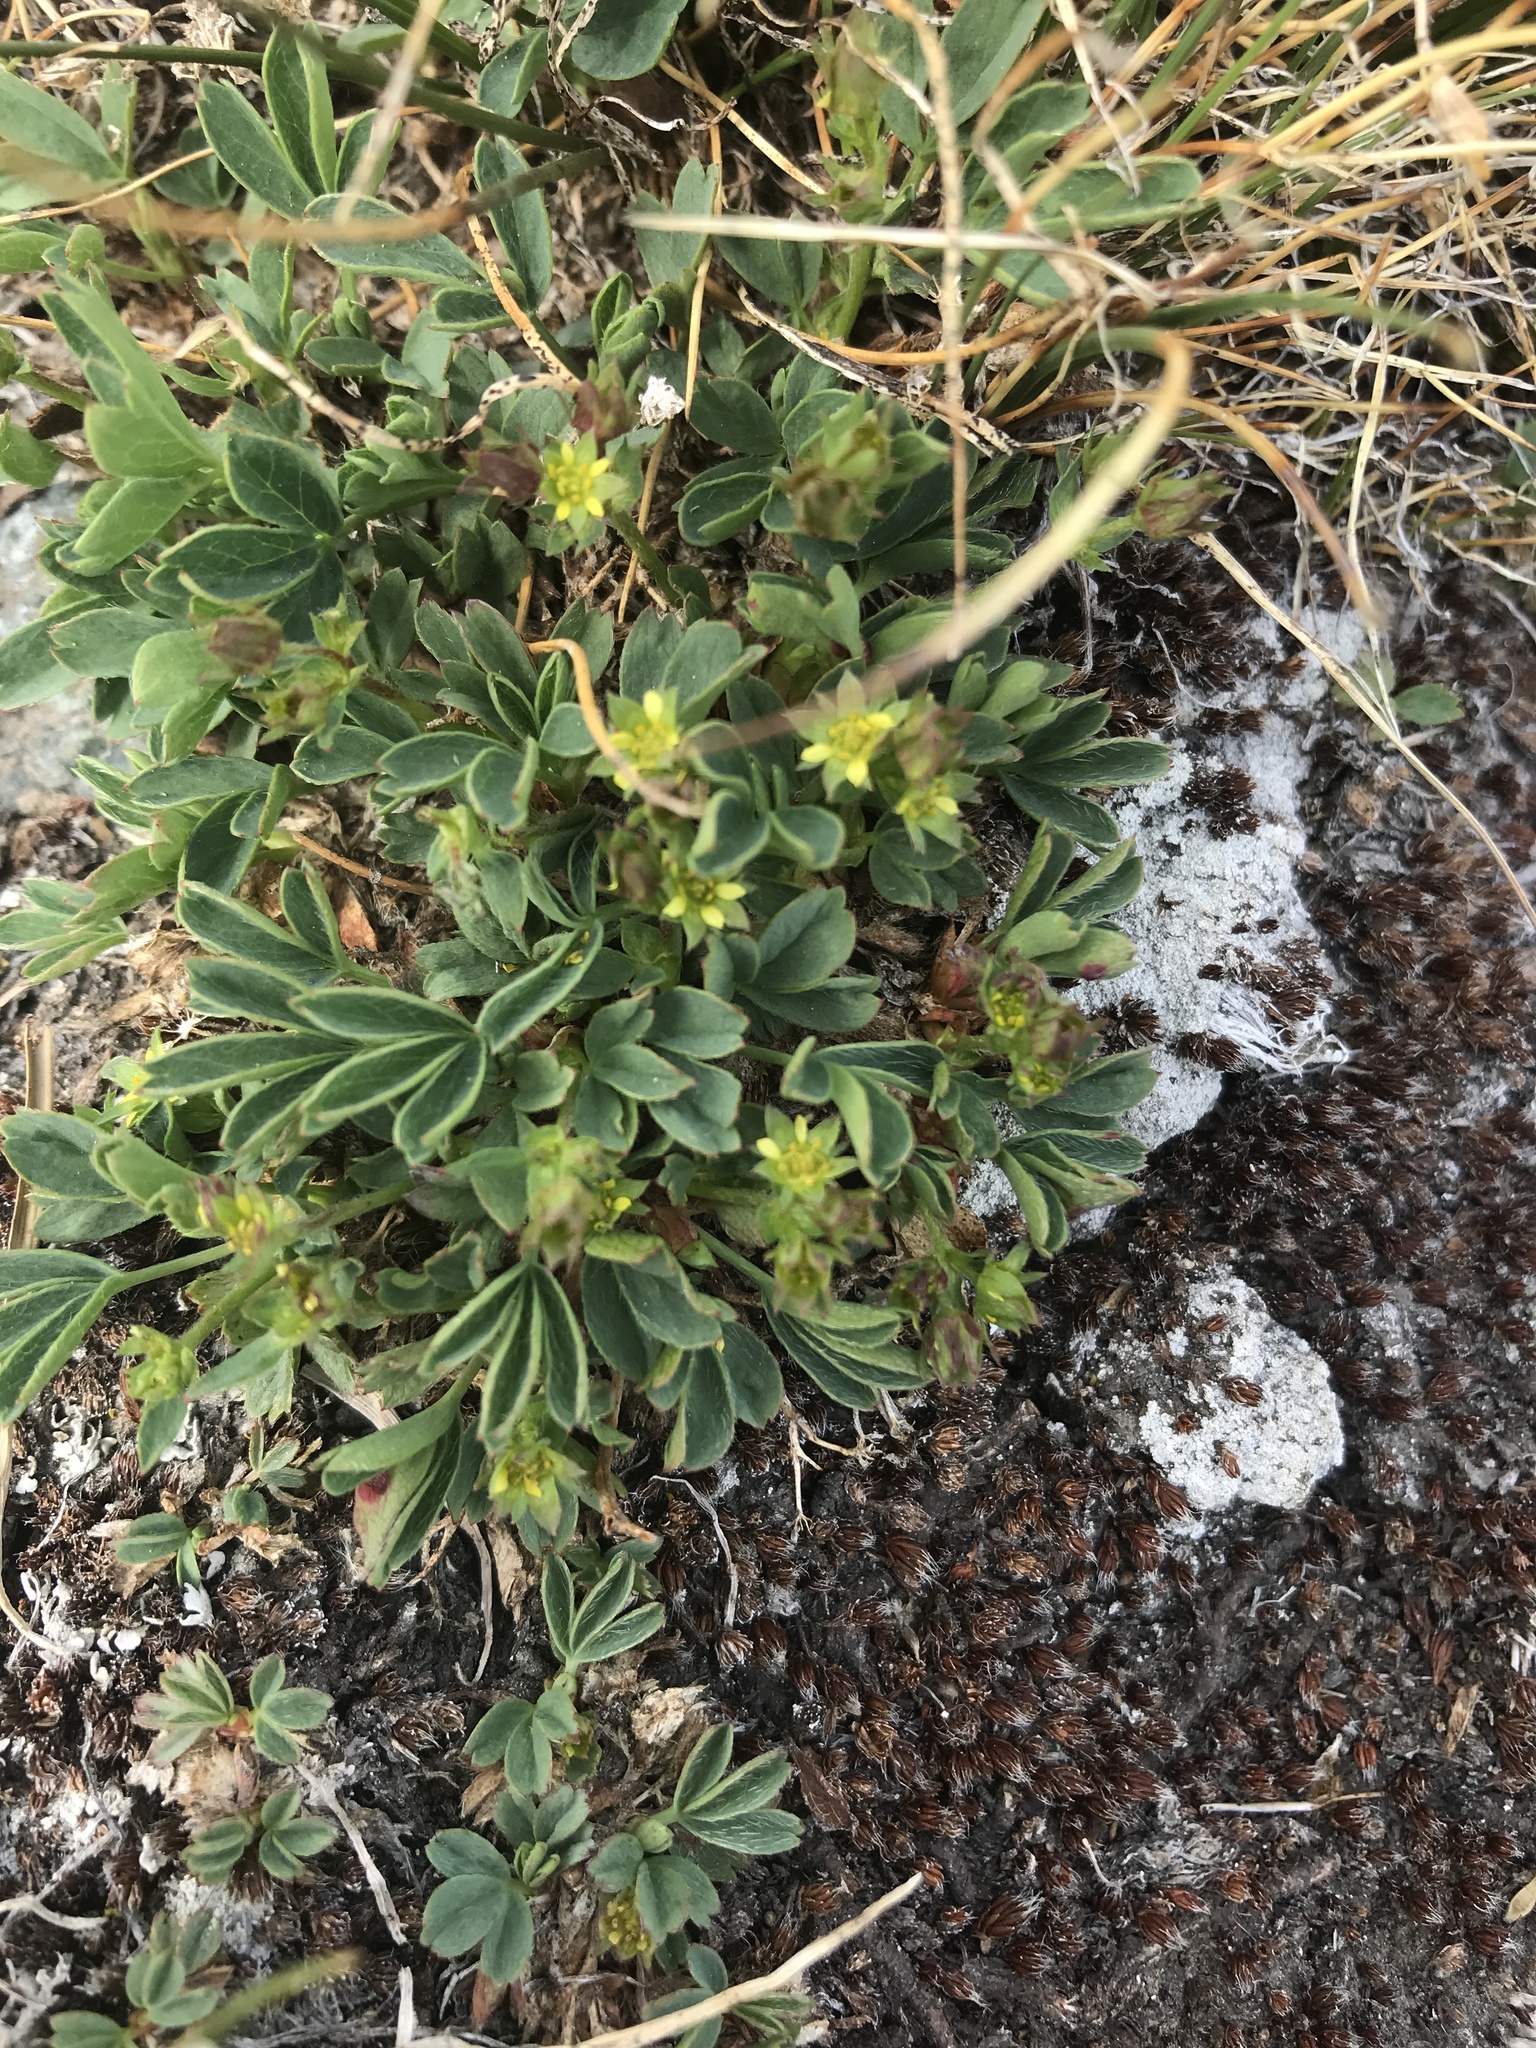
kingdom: Plantae
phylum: Tracheophyta
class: Magnoliopsida
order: Rosales
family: Rosaceae
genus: Sibbaldia
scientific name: Sibbaldia procumbens
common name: Creeping sibbaldia
